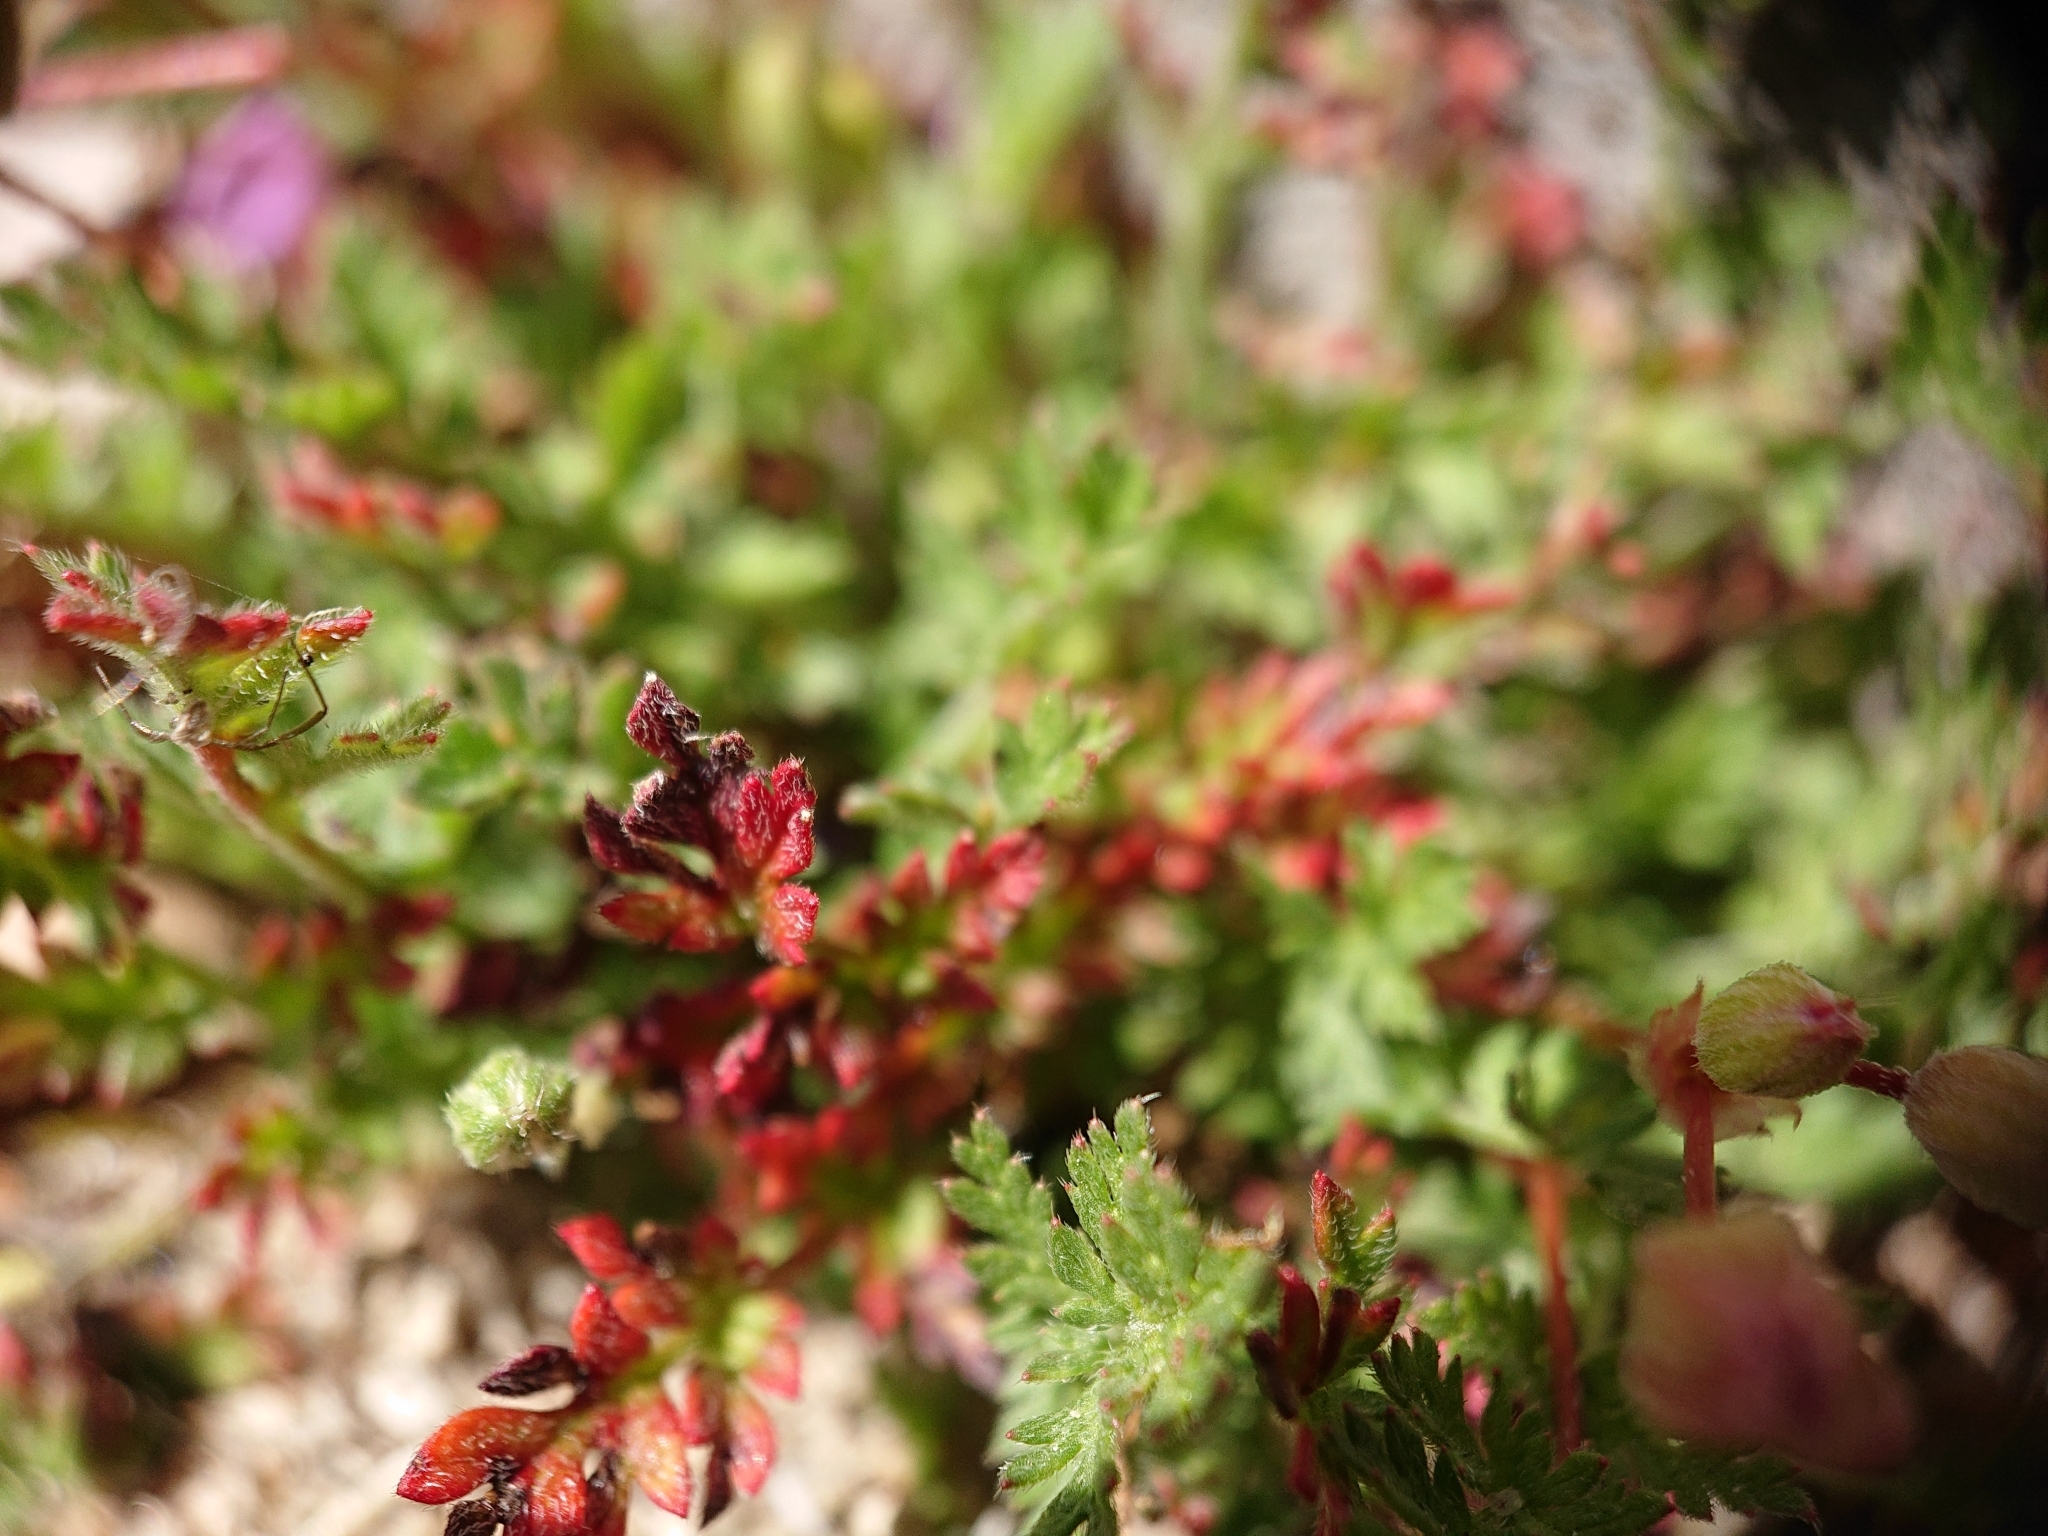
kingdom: Plantae
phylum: Tracheophyta
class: Magnoliopsida
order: Geraniales
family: Geraniaceae
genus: Erodium
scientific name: Erodium cicutarium
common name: Common stork's-bill
